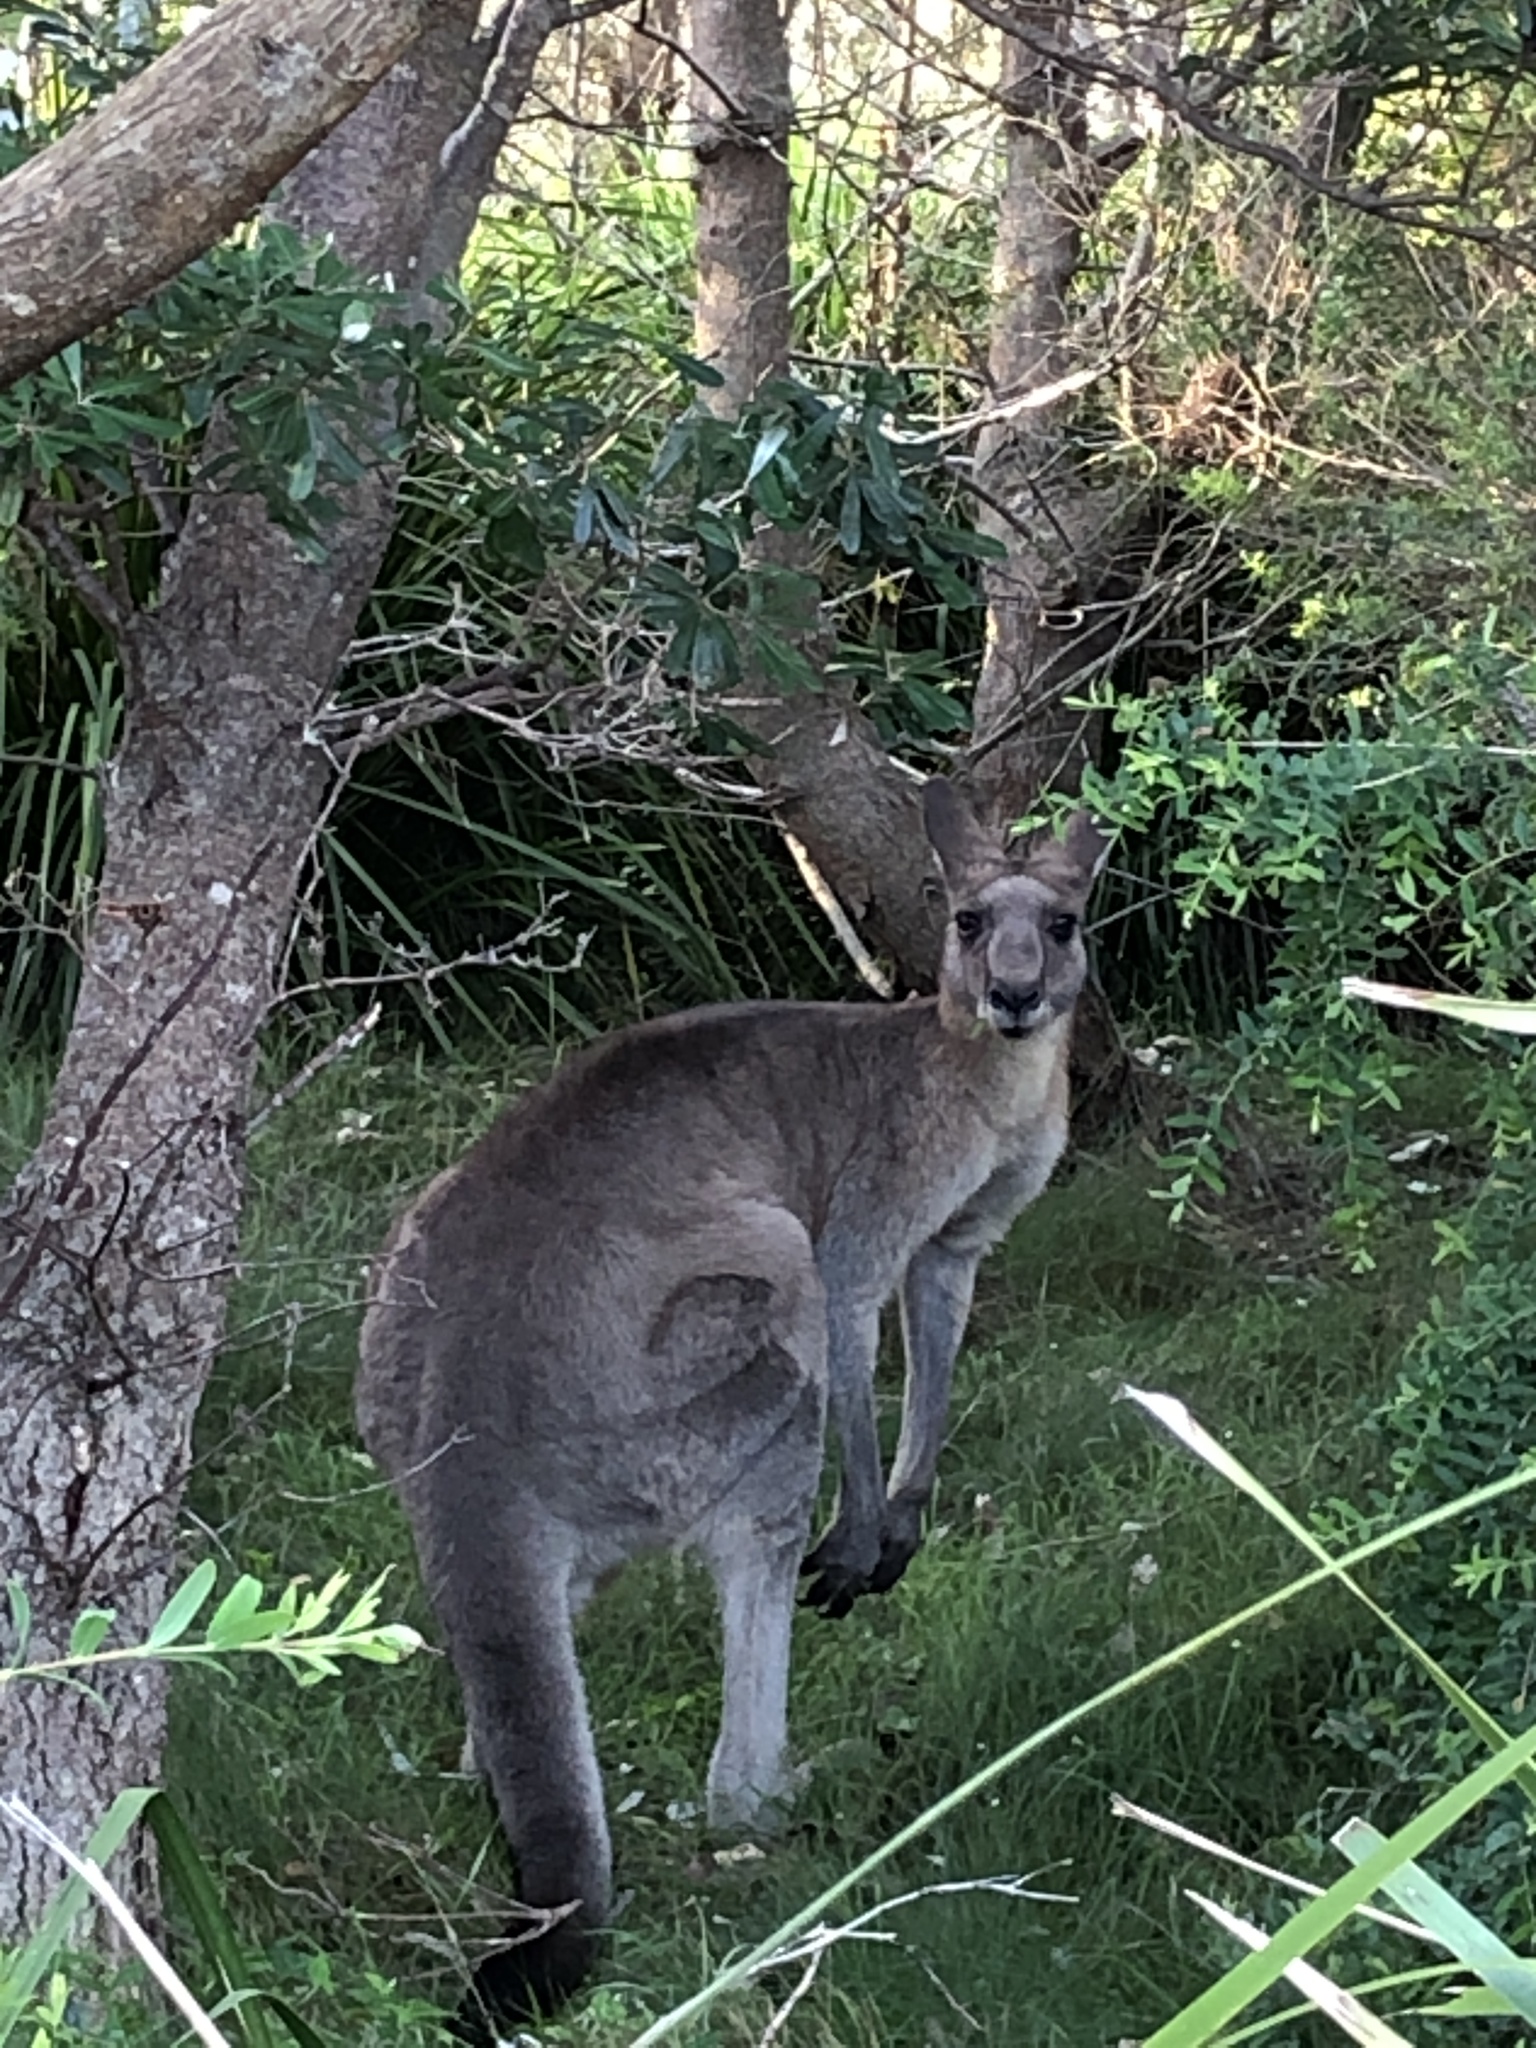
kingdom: Animalia
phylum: Chordata
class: Mammalia
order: Diprotodontia
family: Macropodidae
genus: Macropus
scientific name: Macropus giganteus
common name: Eastern grey kangaroo
